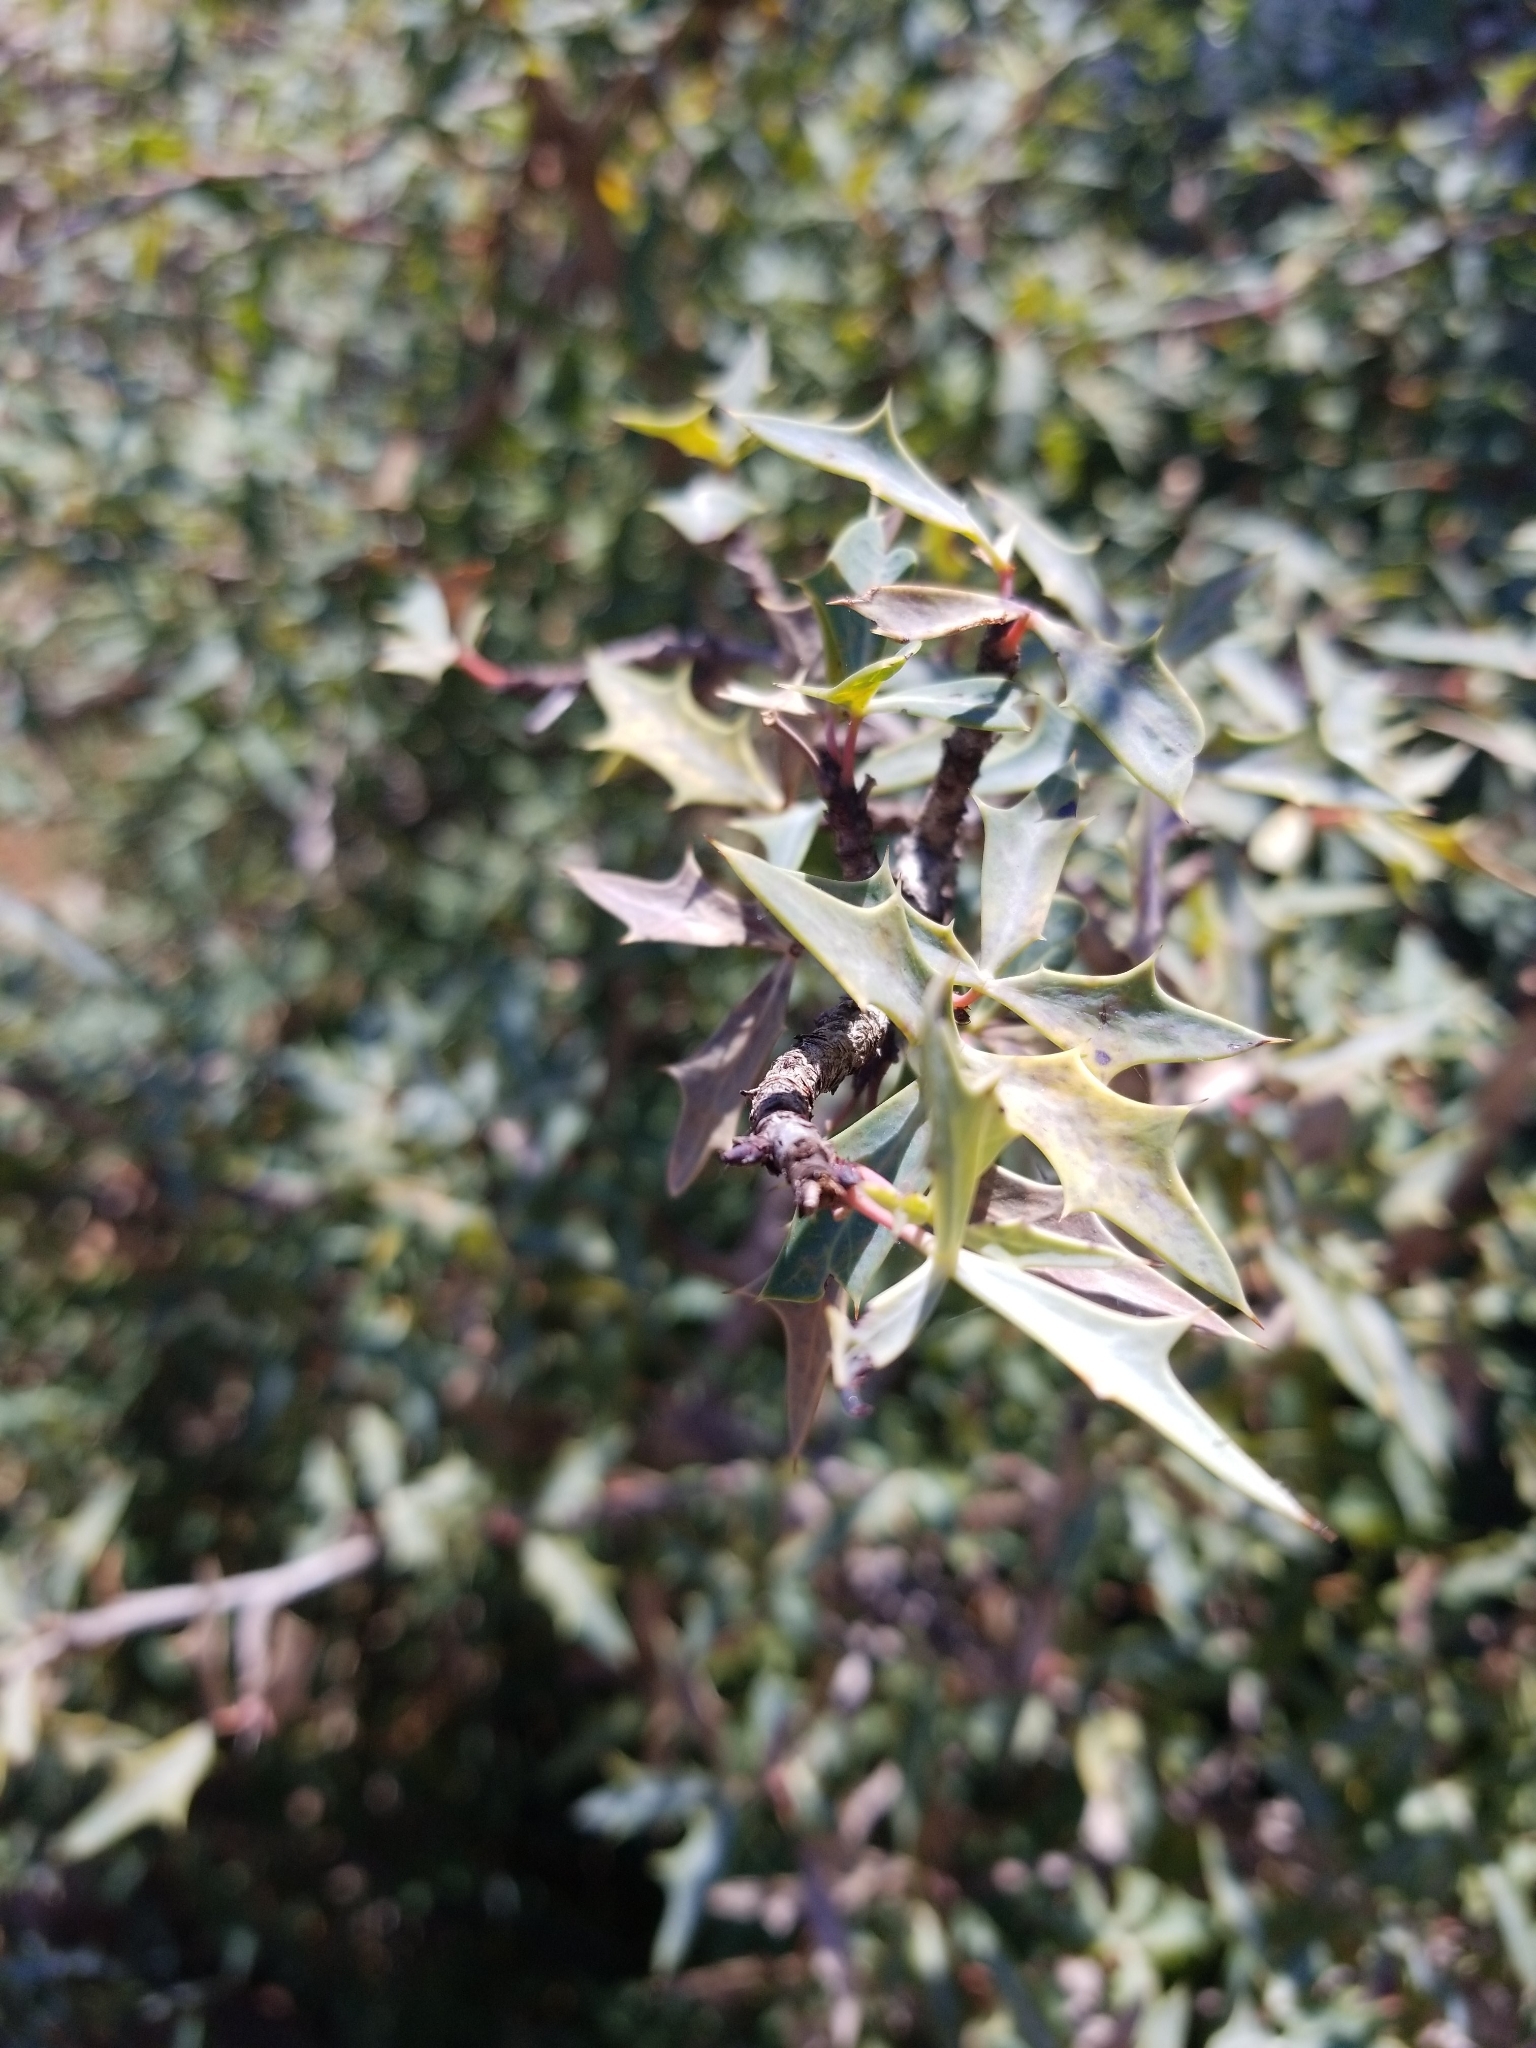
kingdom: Plantae
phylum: Tracheophyta
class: Magnoliopsida
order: Ranunculales
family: Berberidaceae
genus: Alloberberis
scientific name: Alloberberis trifoliolata
